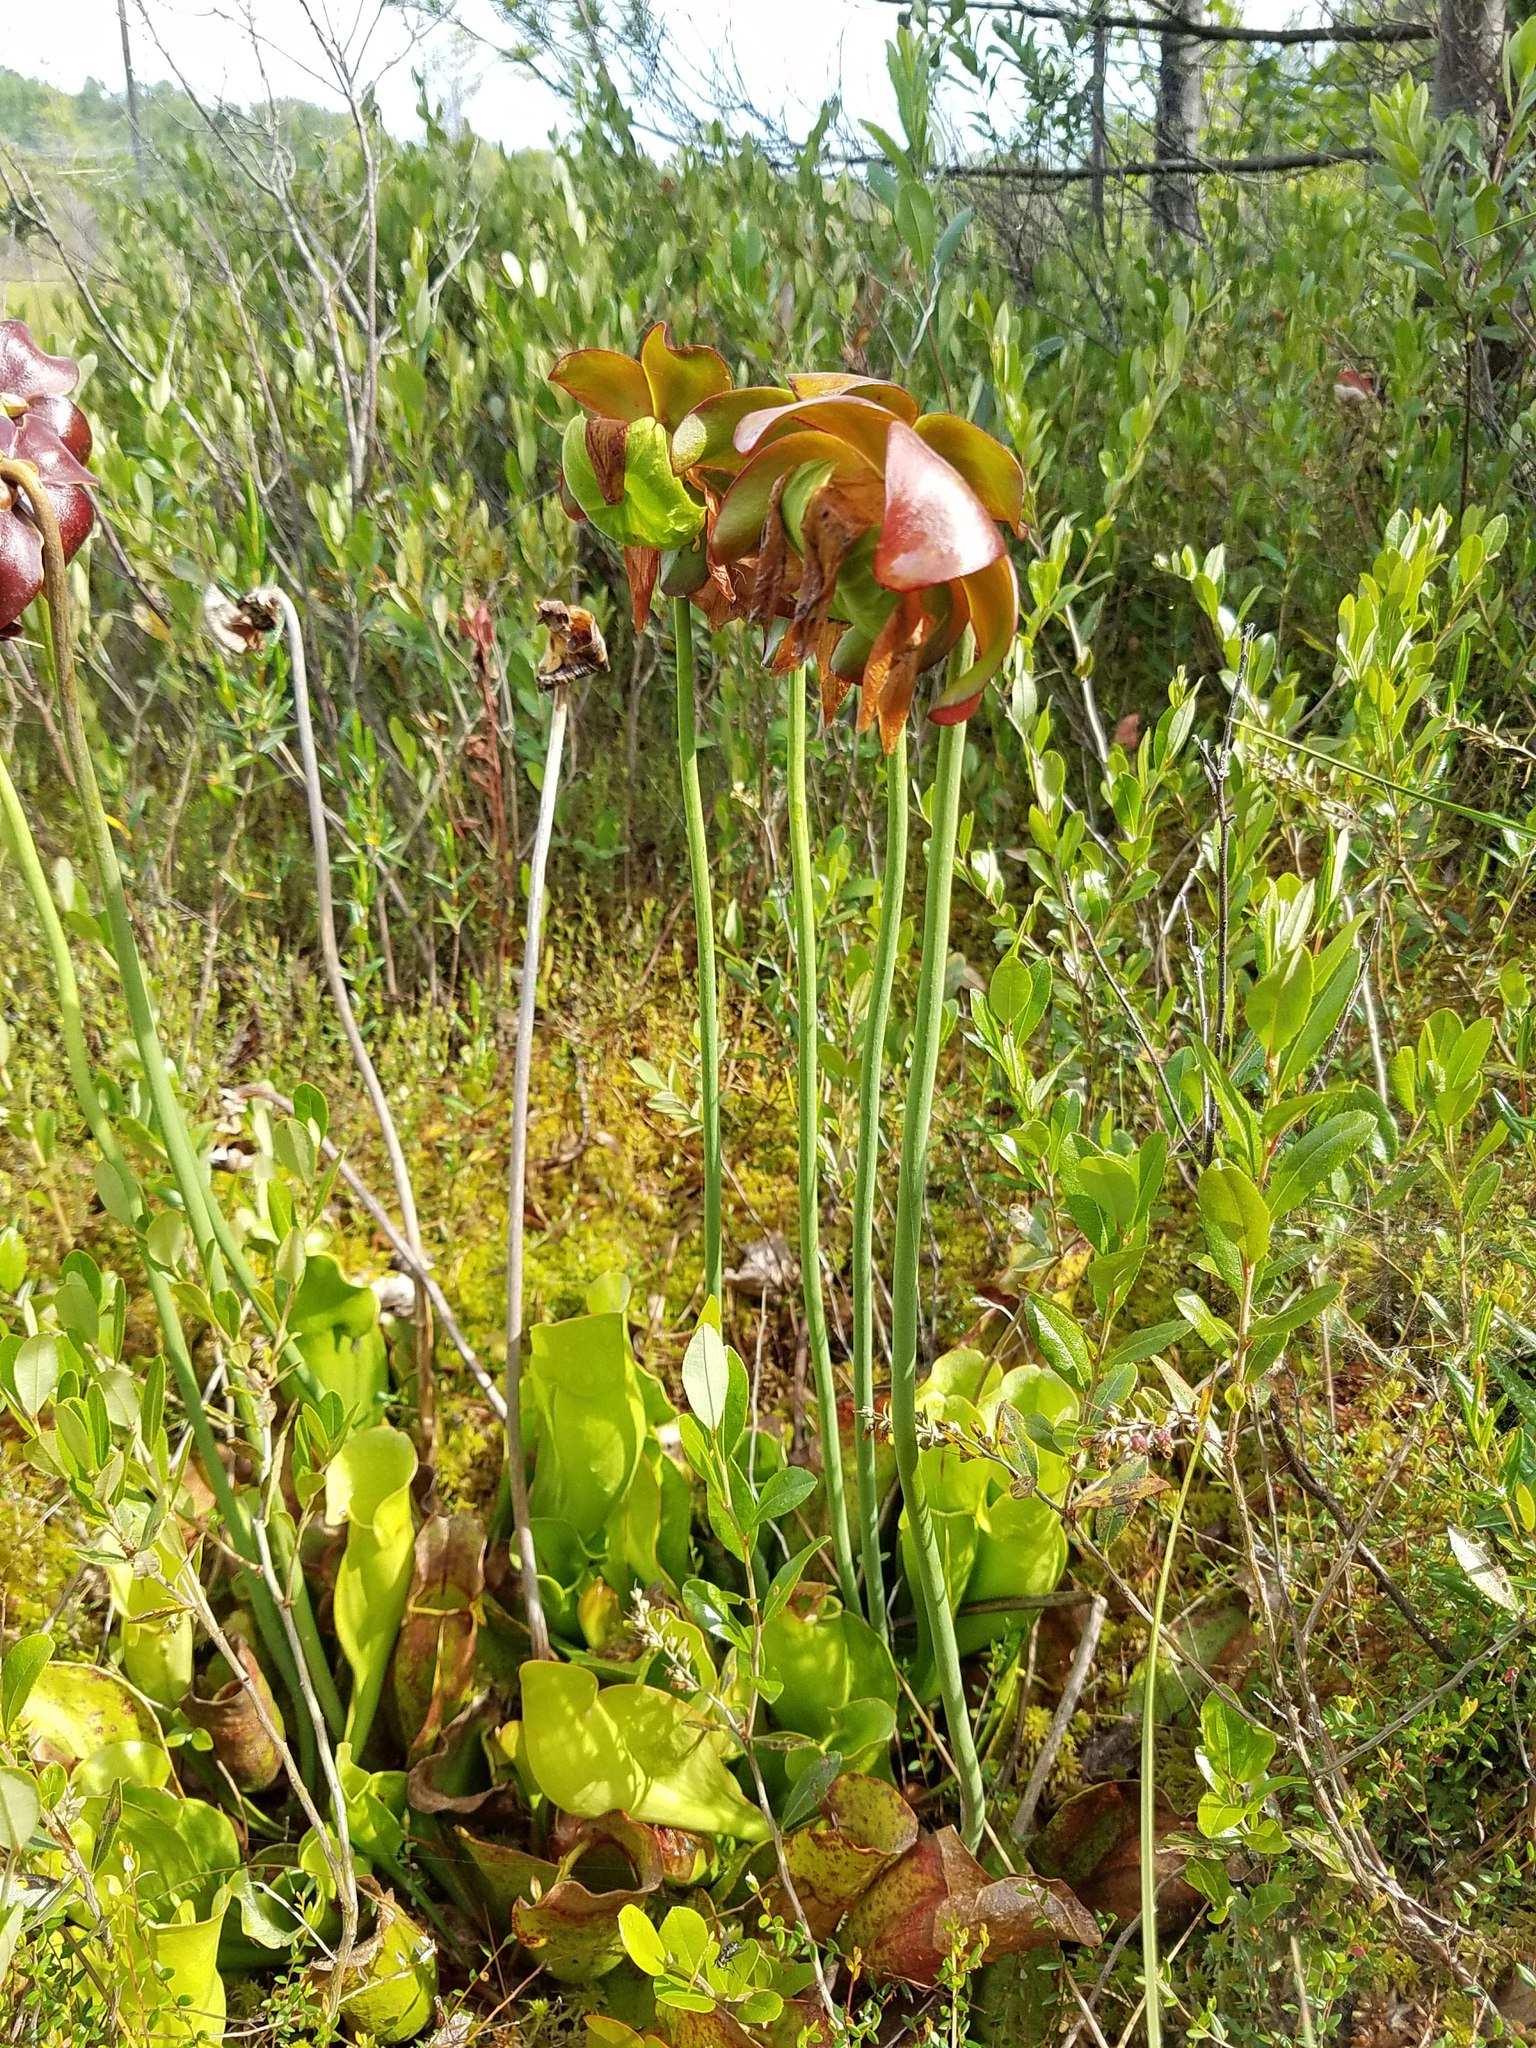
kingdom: Plantae
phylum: Tracheophyta
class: Magnoliopsida
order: Ericales
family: Sarraceniaceae
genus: Sarracenia
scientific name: Sarracenia purpurea
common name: Pitcherplant
